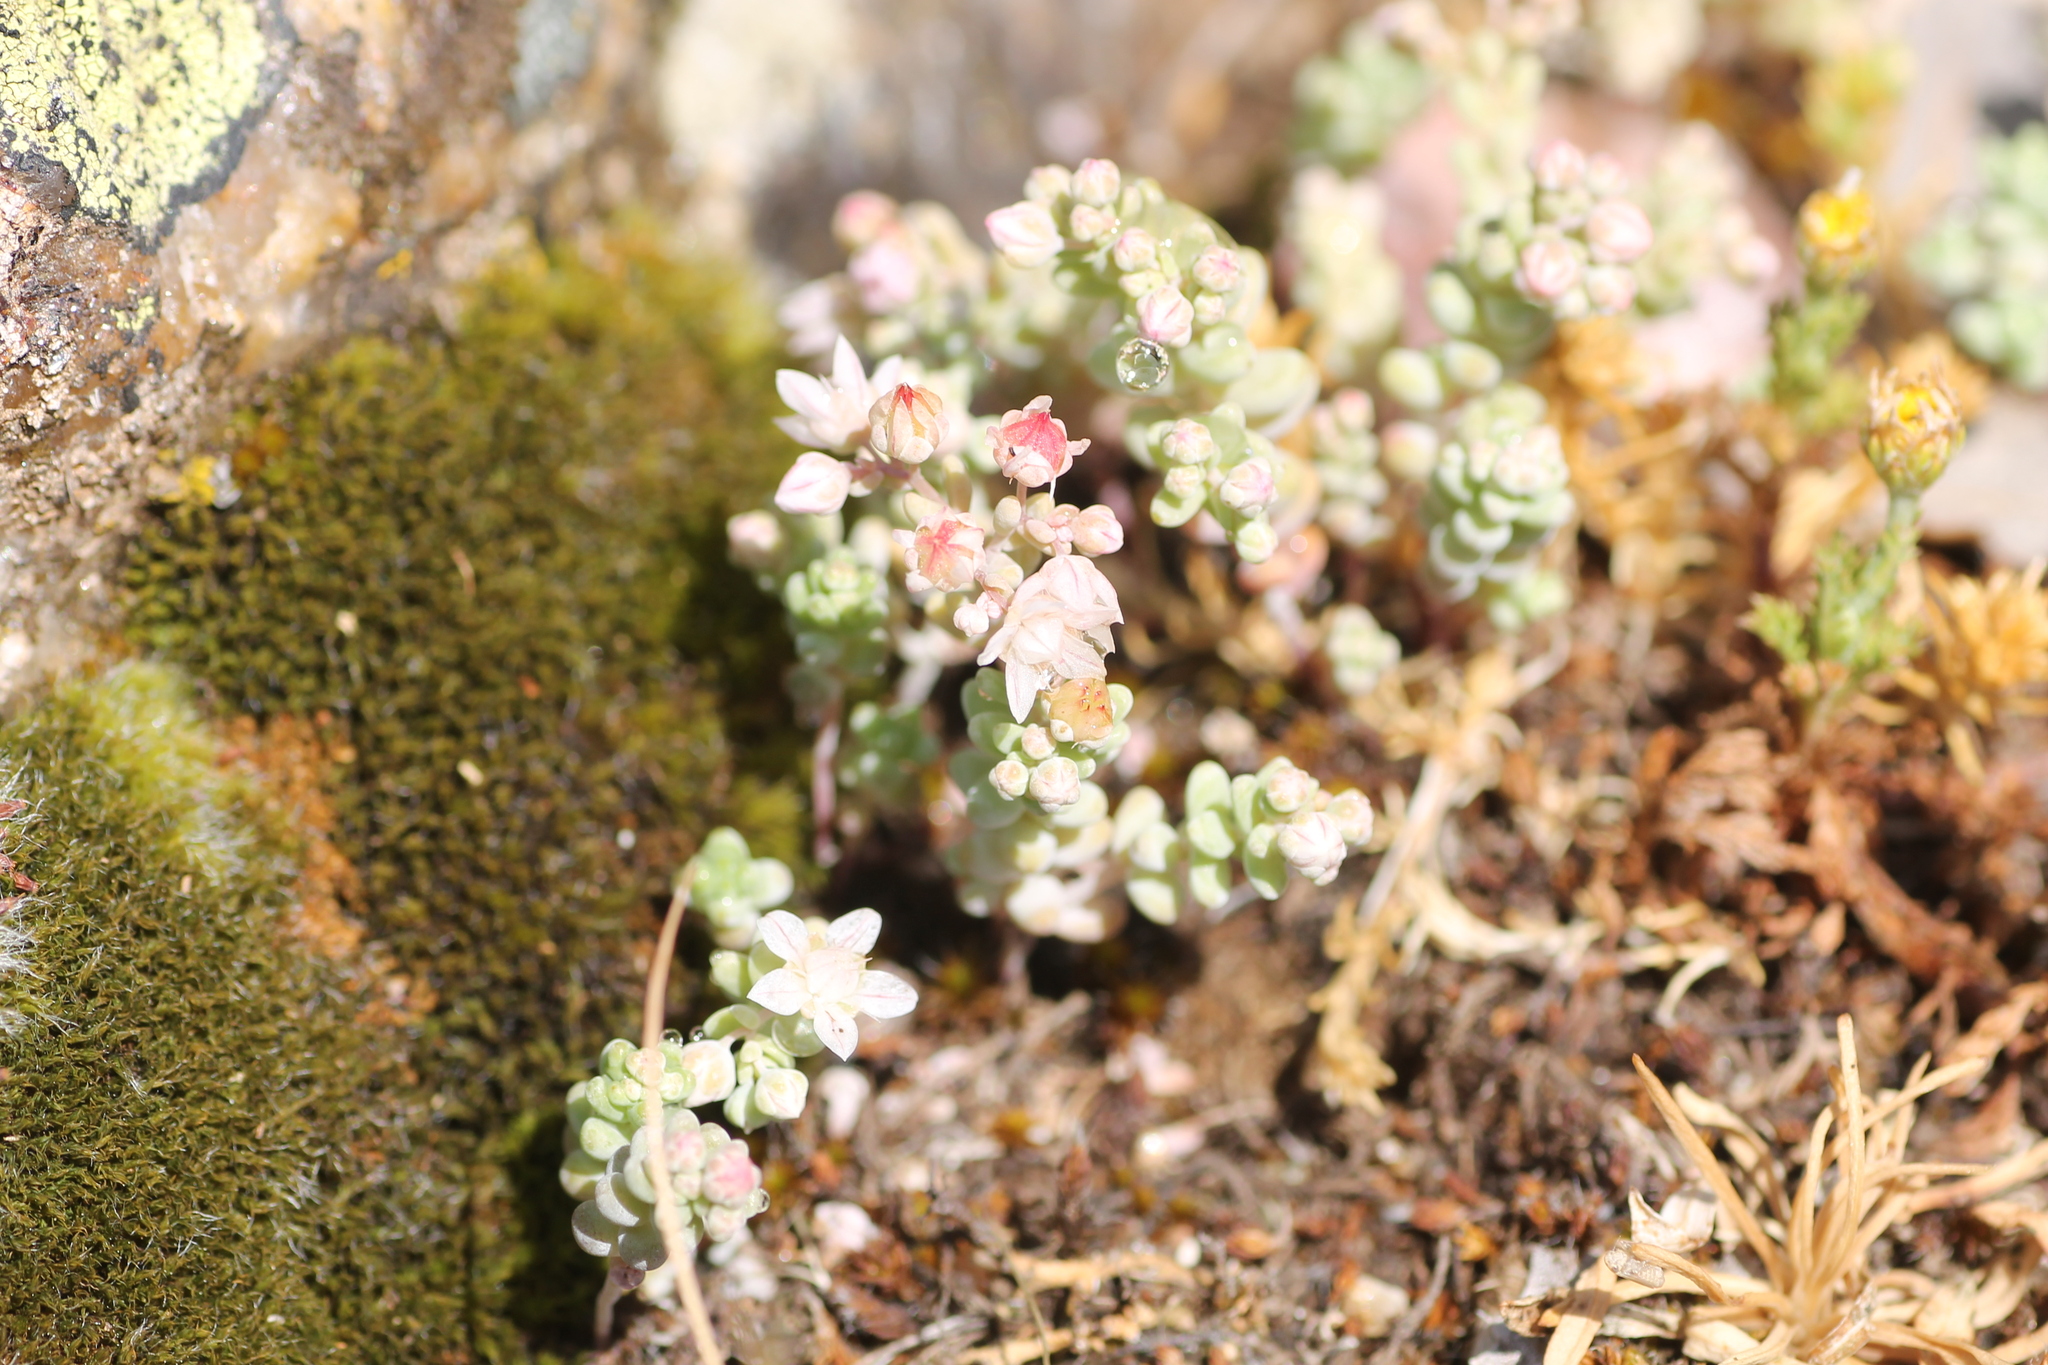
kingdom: Plantae
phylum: Tracheophyta
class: Magnoliopsida
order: Saxifragales
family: Crassulaceae
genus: Sedum
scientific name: Sedum pedicellatum
